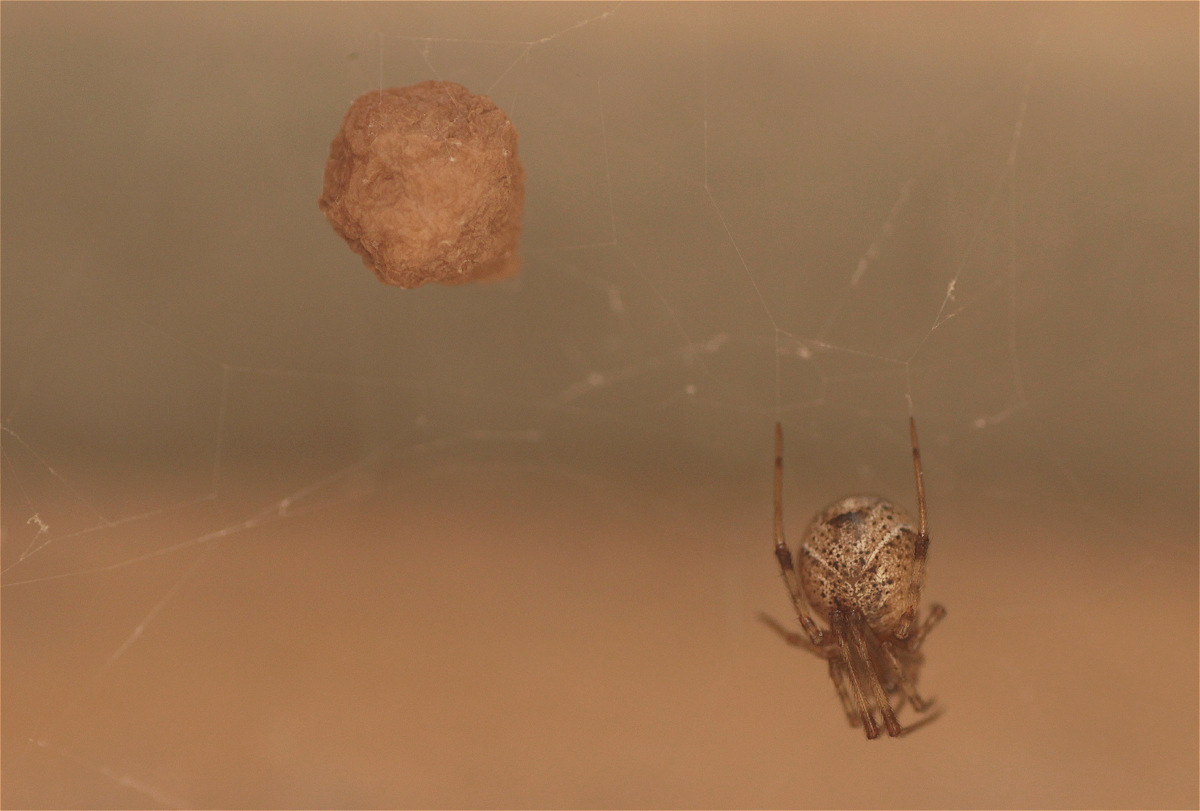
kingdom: Animalia
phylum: Arthropoda
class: Arachnida
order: Araneae
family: Theridiidae
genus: Parasteatoda
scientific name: Parasteatoda tepidariorum
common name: Common house spider
